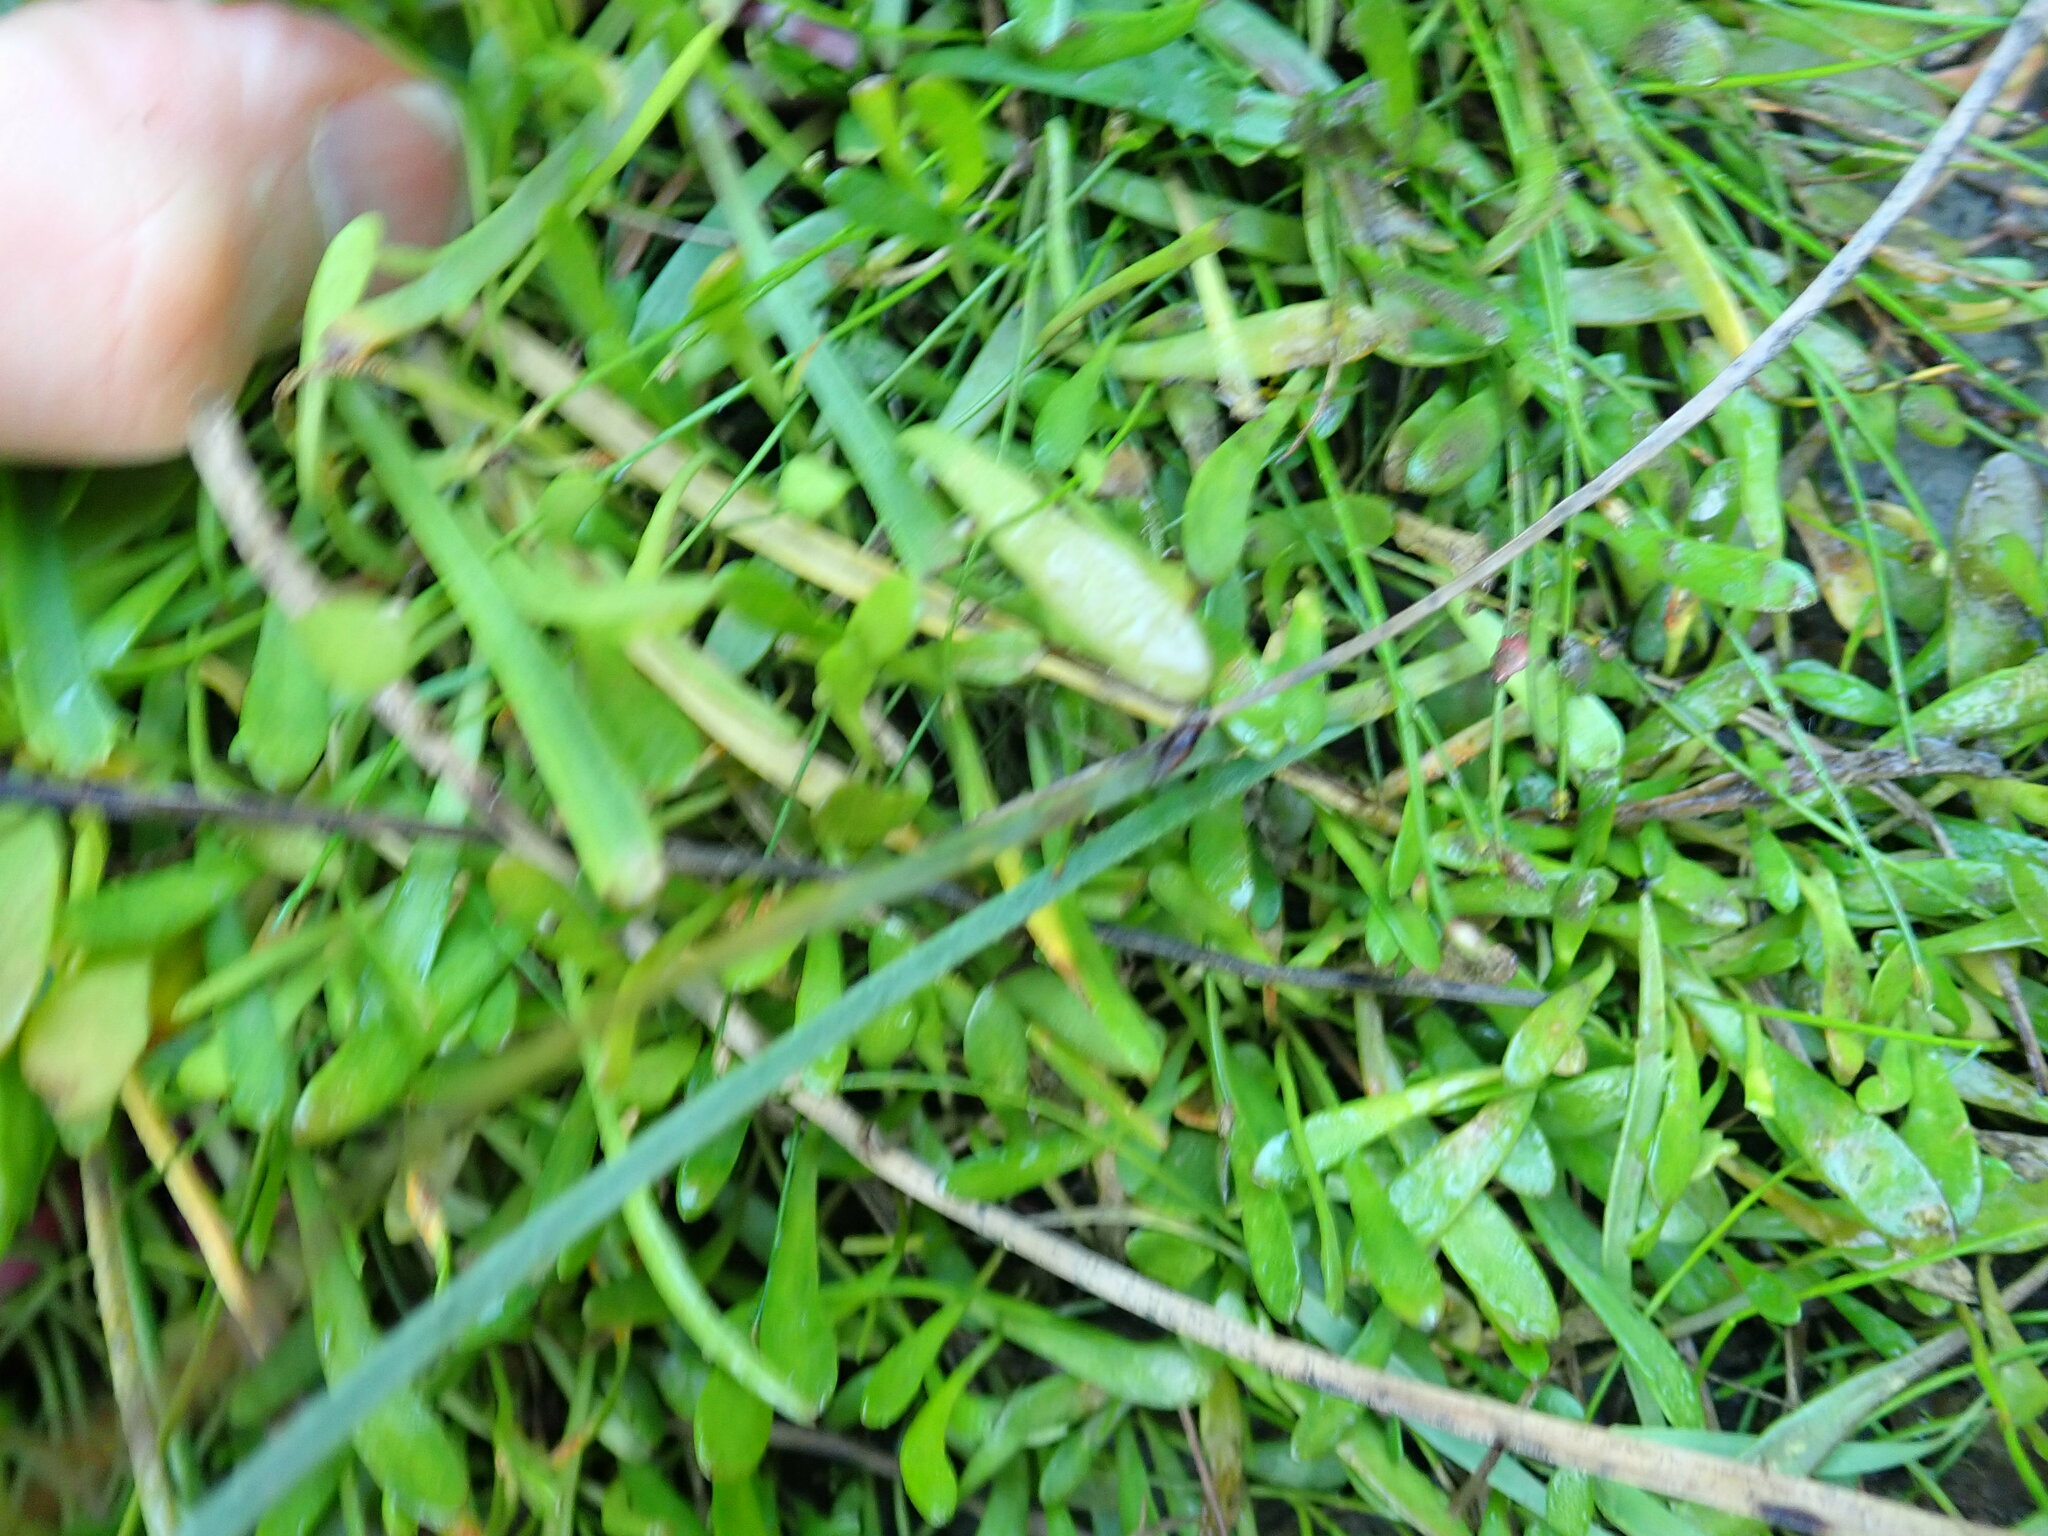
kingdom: Plantae
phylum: Tracheophyta
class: Magnoliopsida
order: Asterales
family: Goodeniaceae
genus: Goodenia
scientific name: Goodenia radicans
